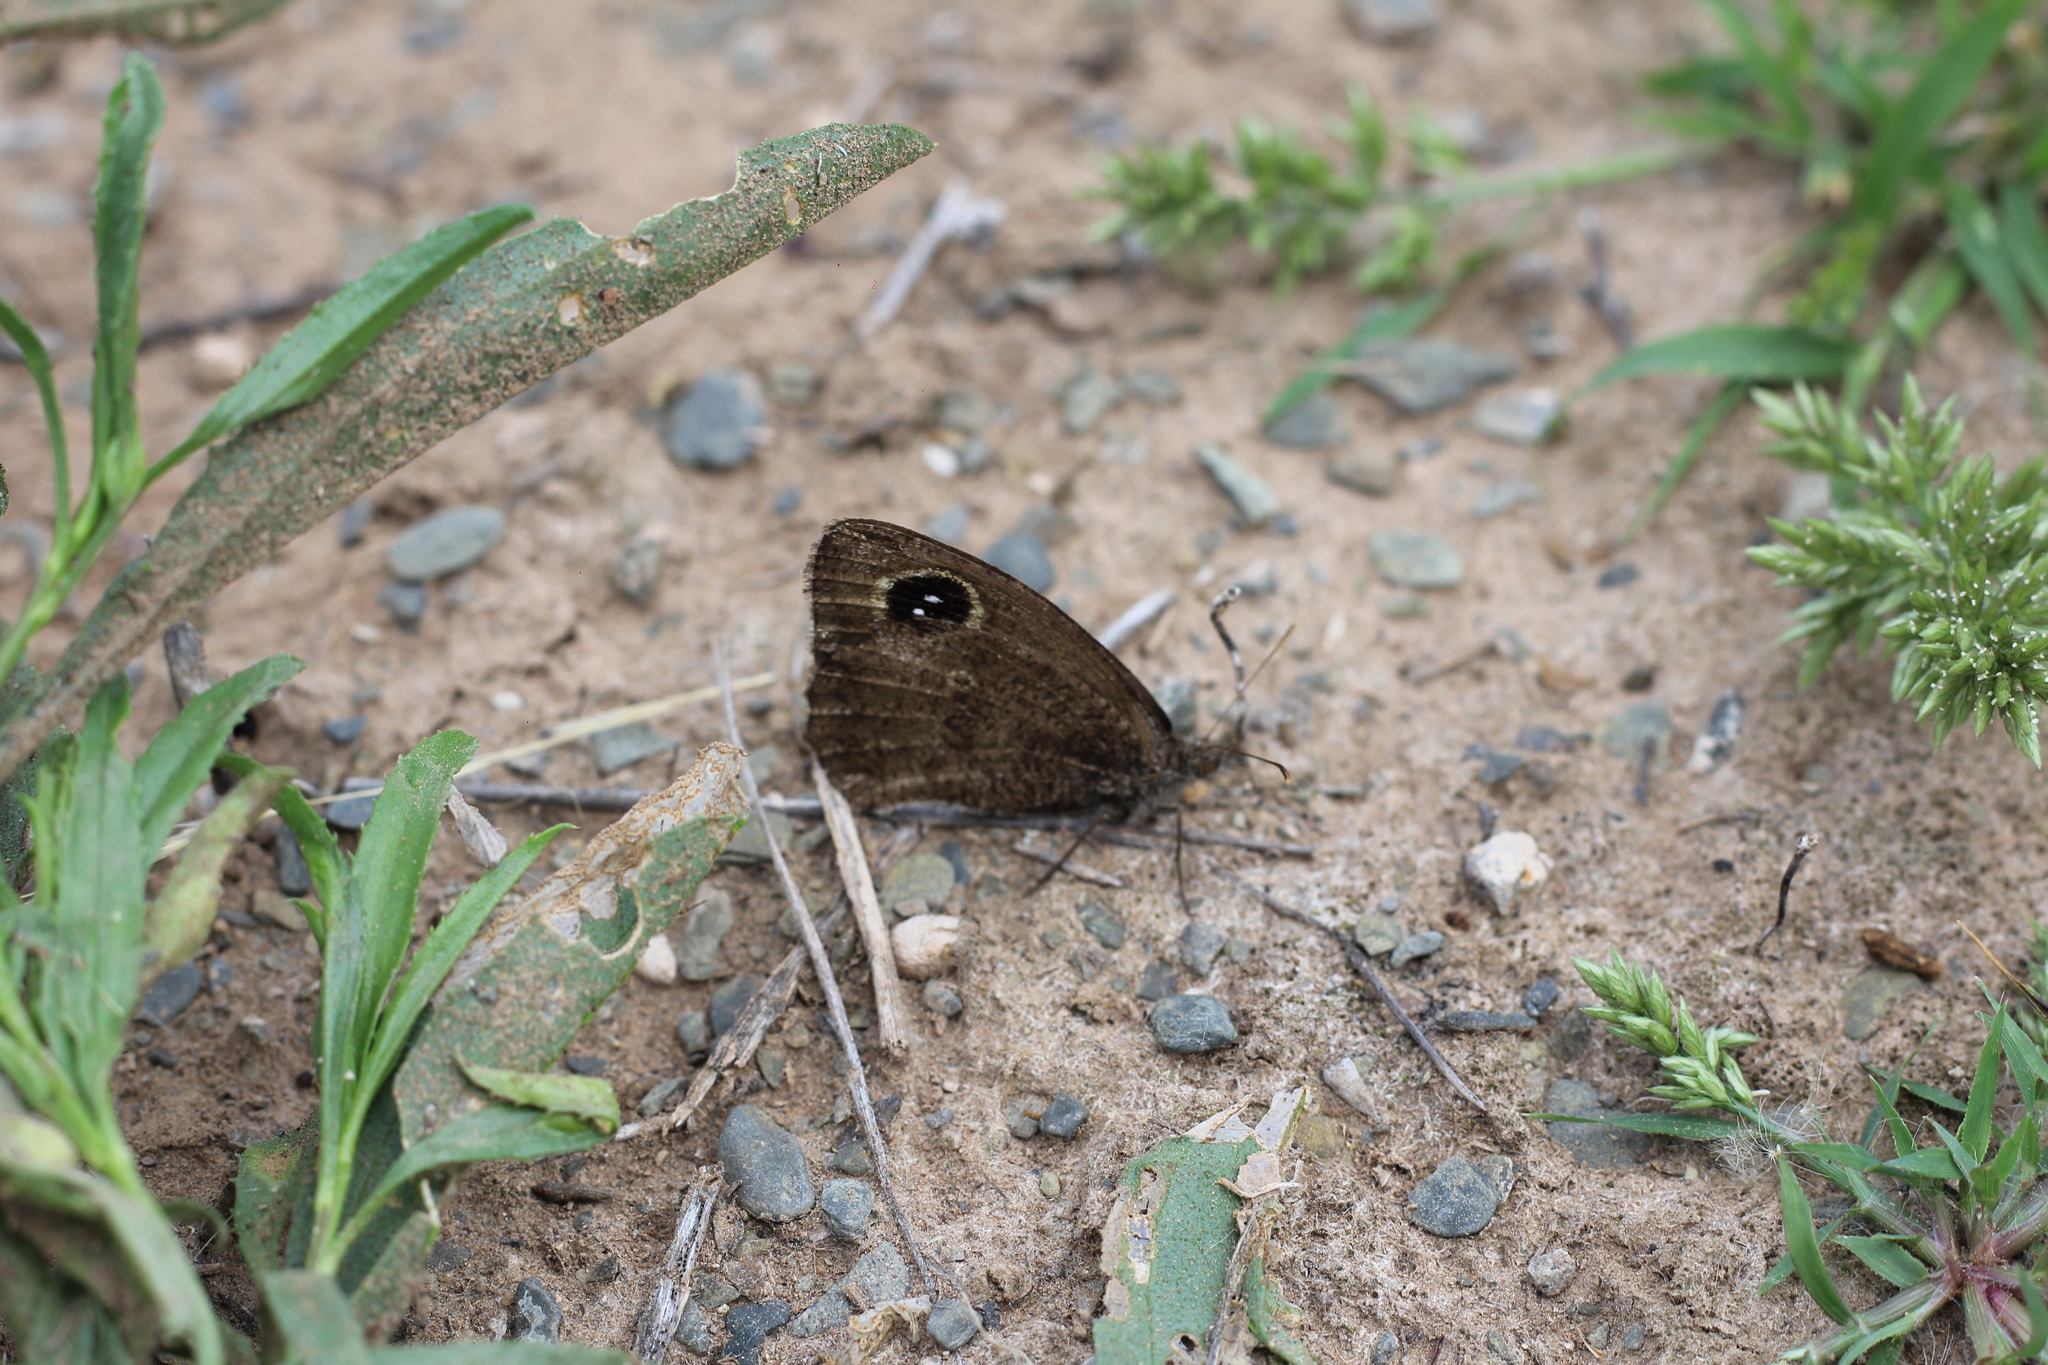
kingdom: Animalia
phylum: Arthropoda
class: Insecta
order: Lepidoptera
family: Nymphalidae
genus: Pampasatyrus
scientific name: Pampasatyrus yacantoensis
